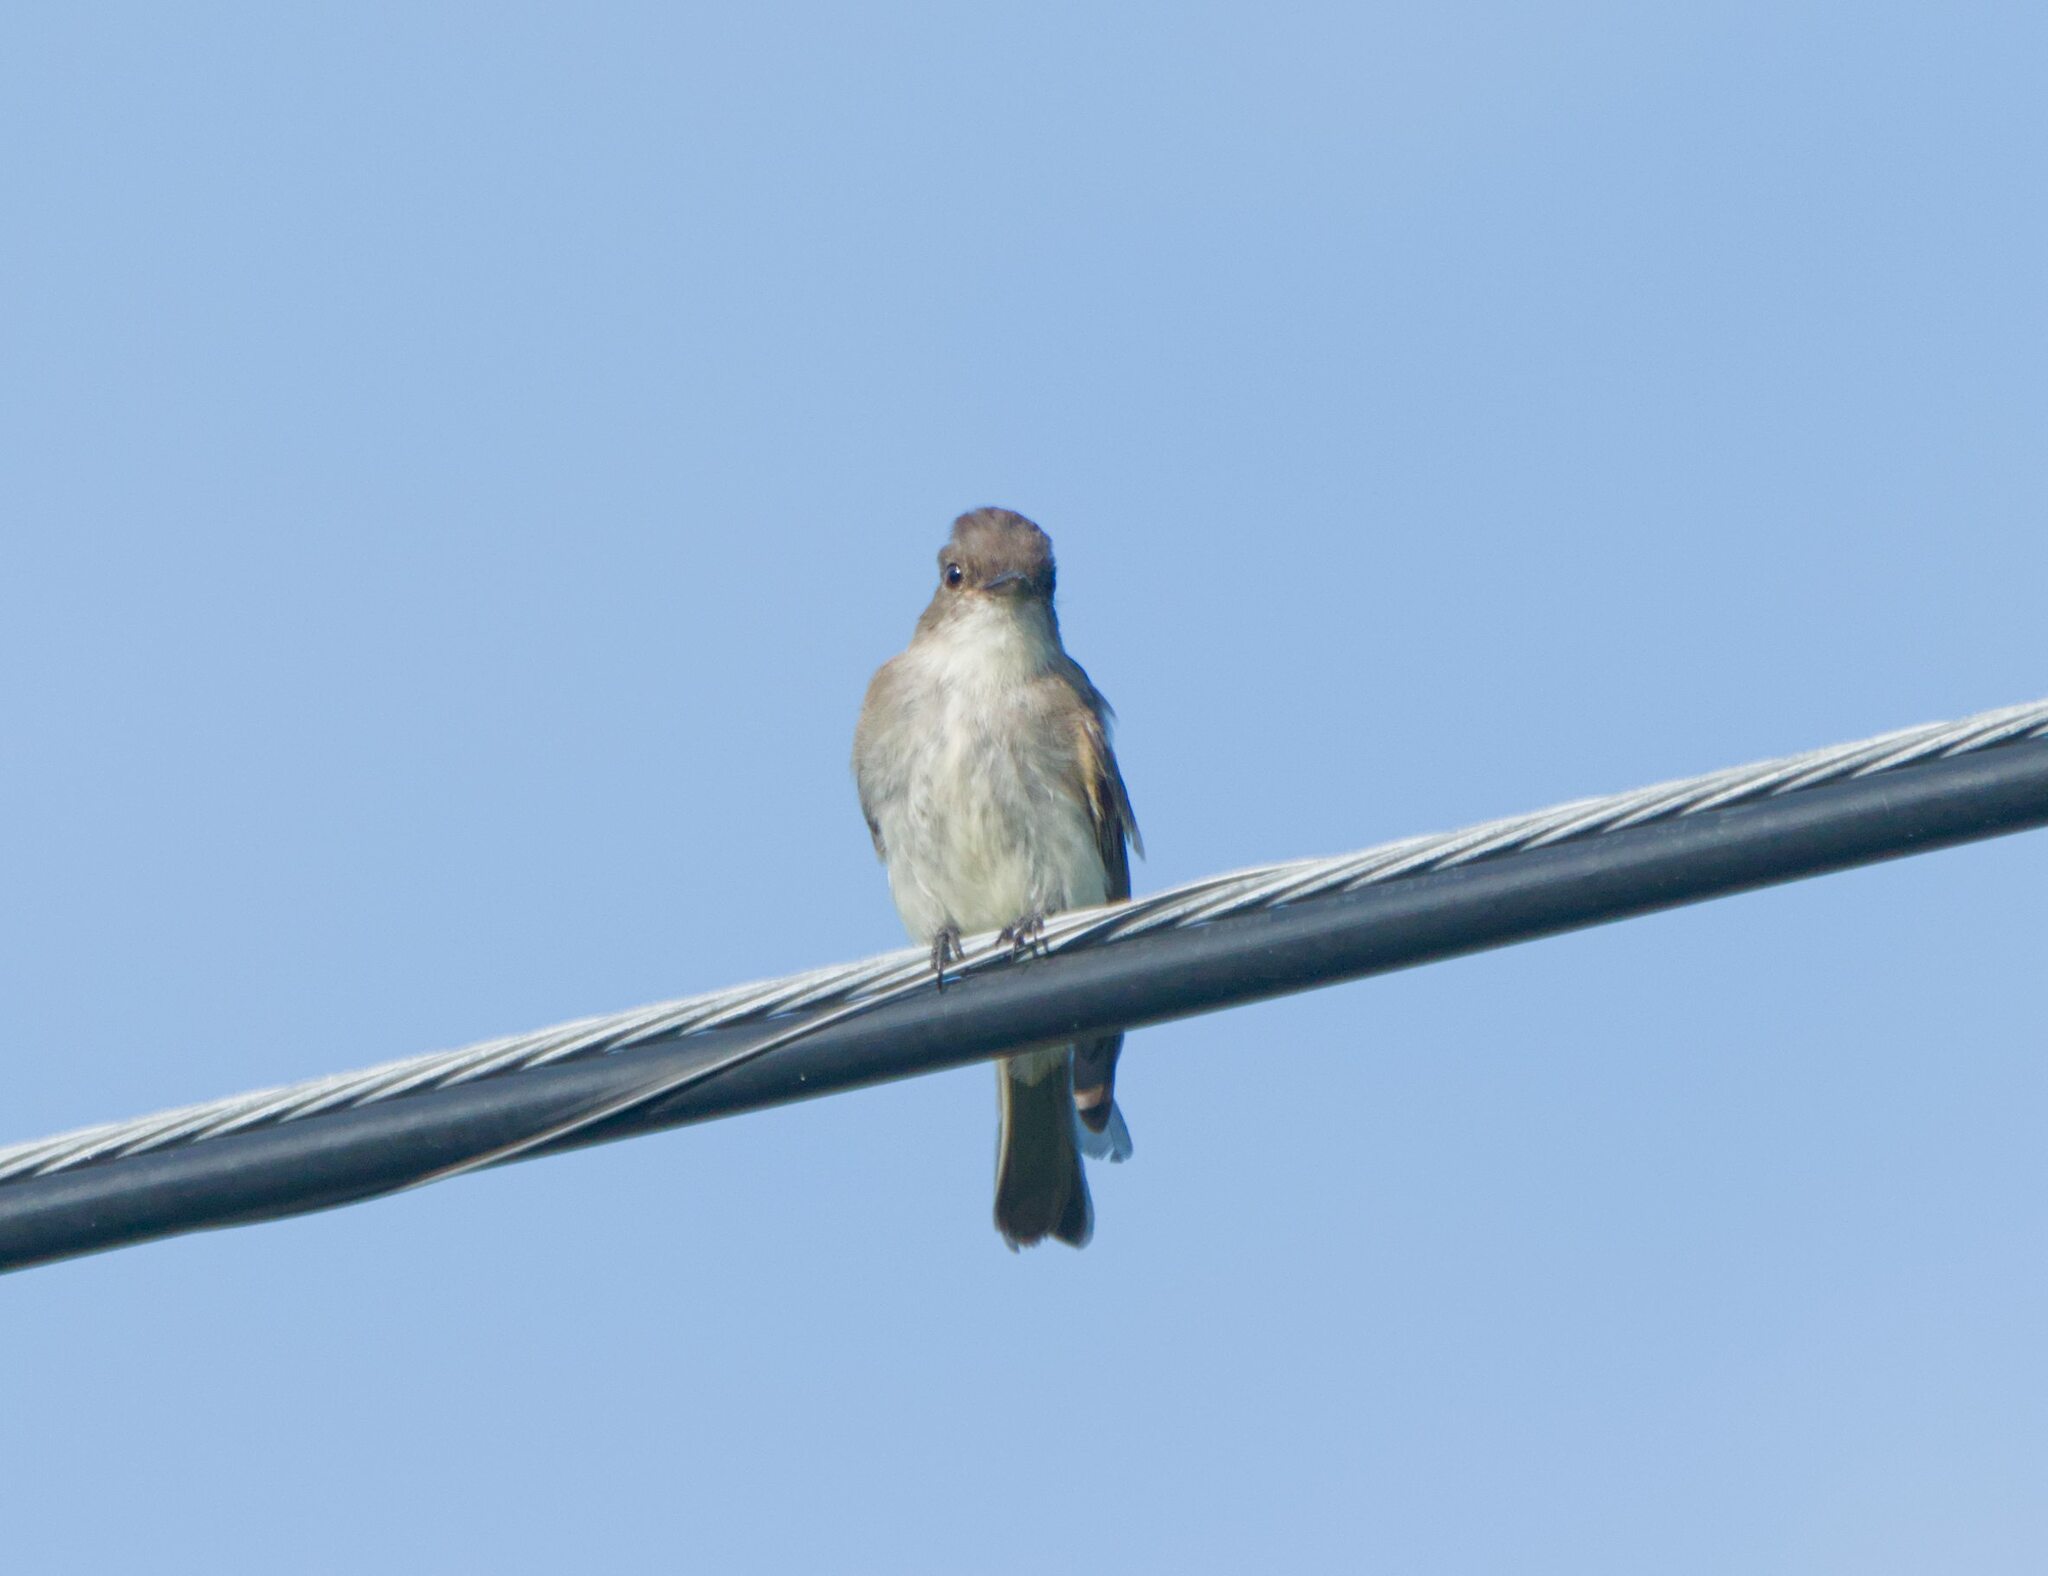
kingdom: Animalia
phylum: Chordata
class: Aves
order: Passeriformes
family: Tyrannidae
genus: Sayornis
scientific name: Sayornis phoebe
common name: Eastern phoebe
